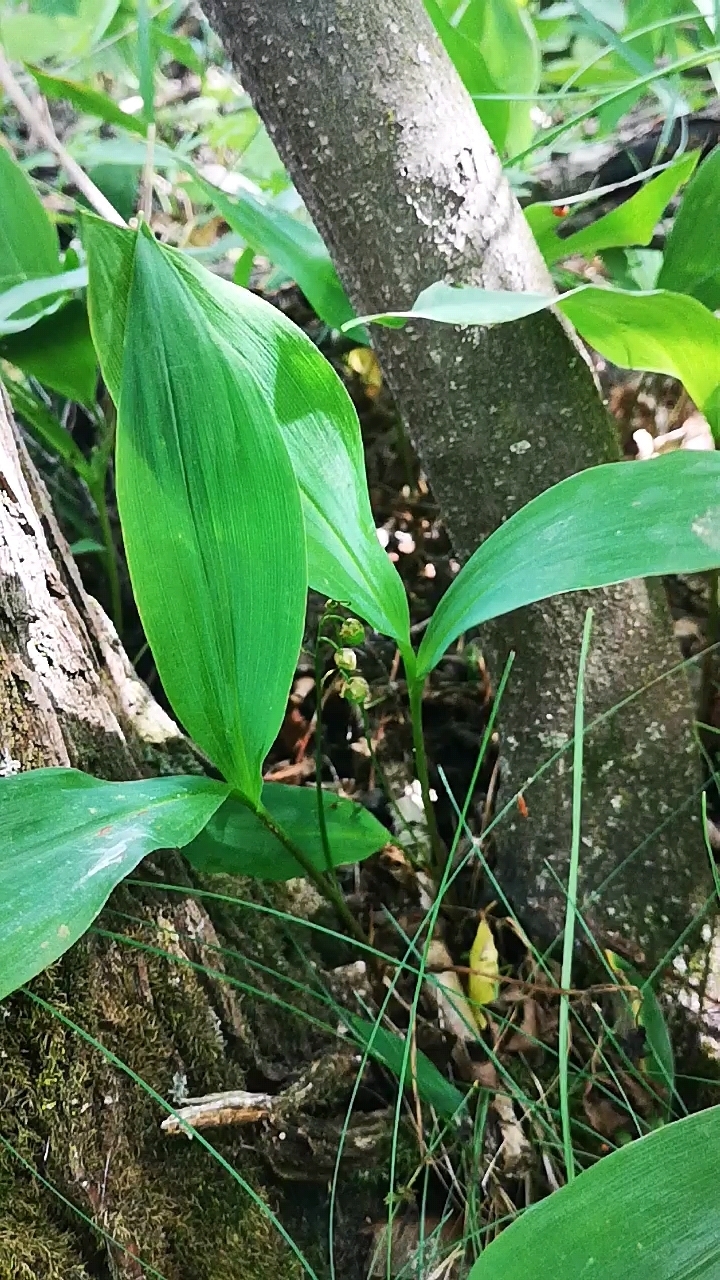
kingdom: Plantae
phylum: Tracheophyta
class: Liliopsida
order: Asparagales
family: Asparagaceae
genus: Convallaria
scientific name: Convallaria majalis
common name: Lily-of-the-valley
